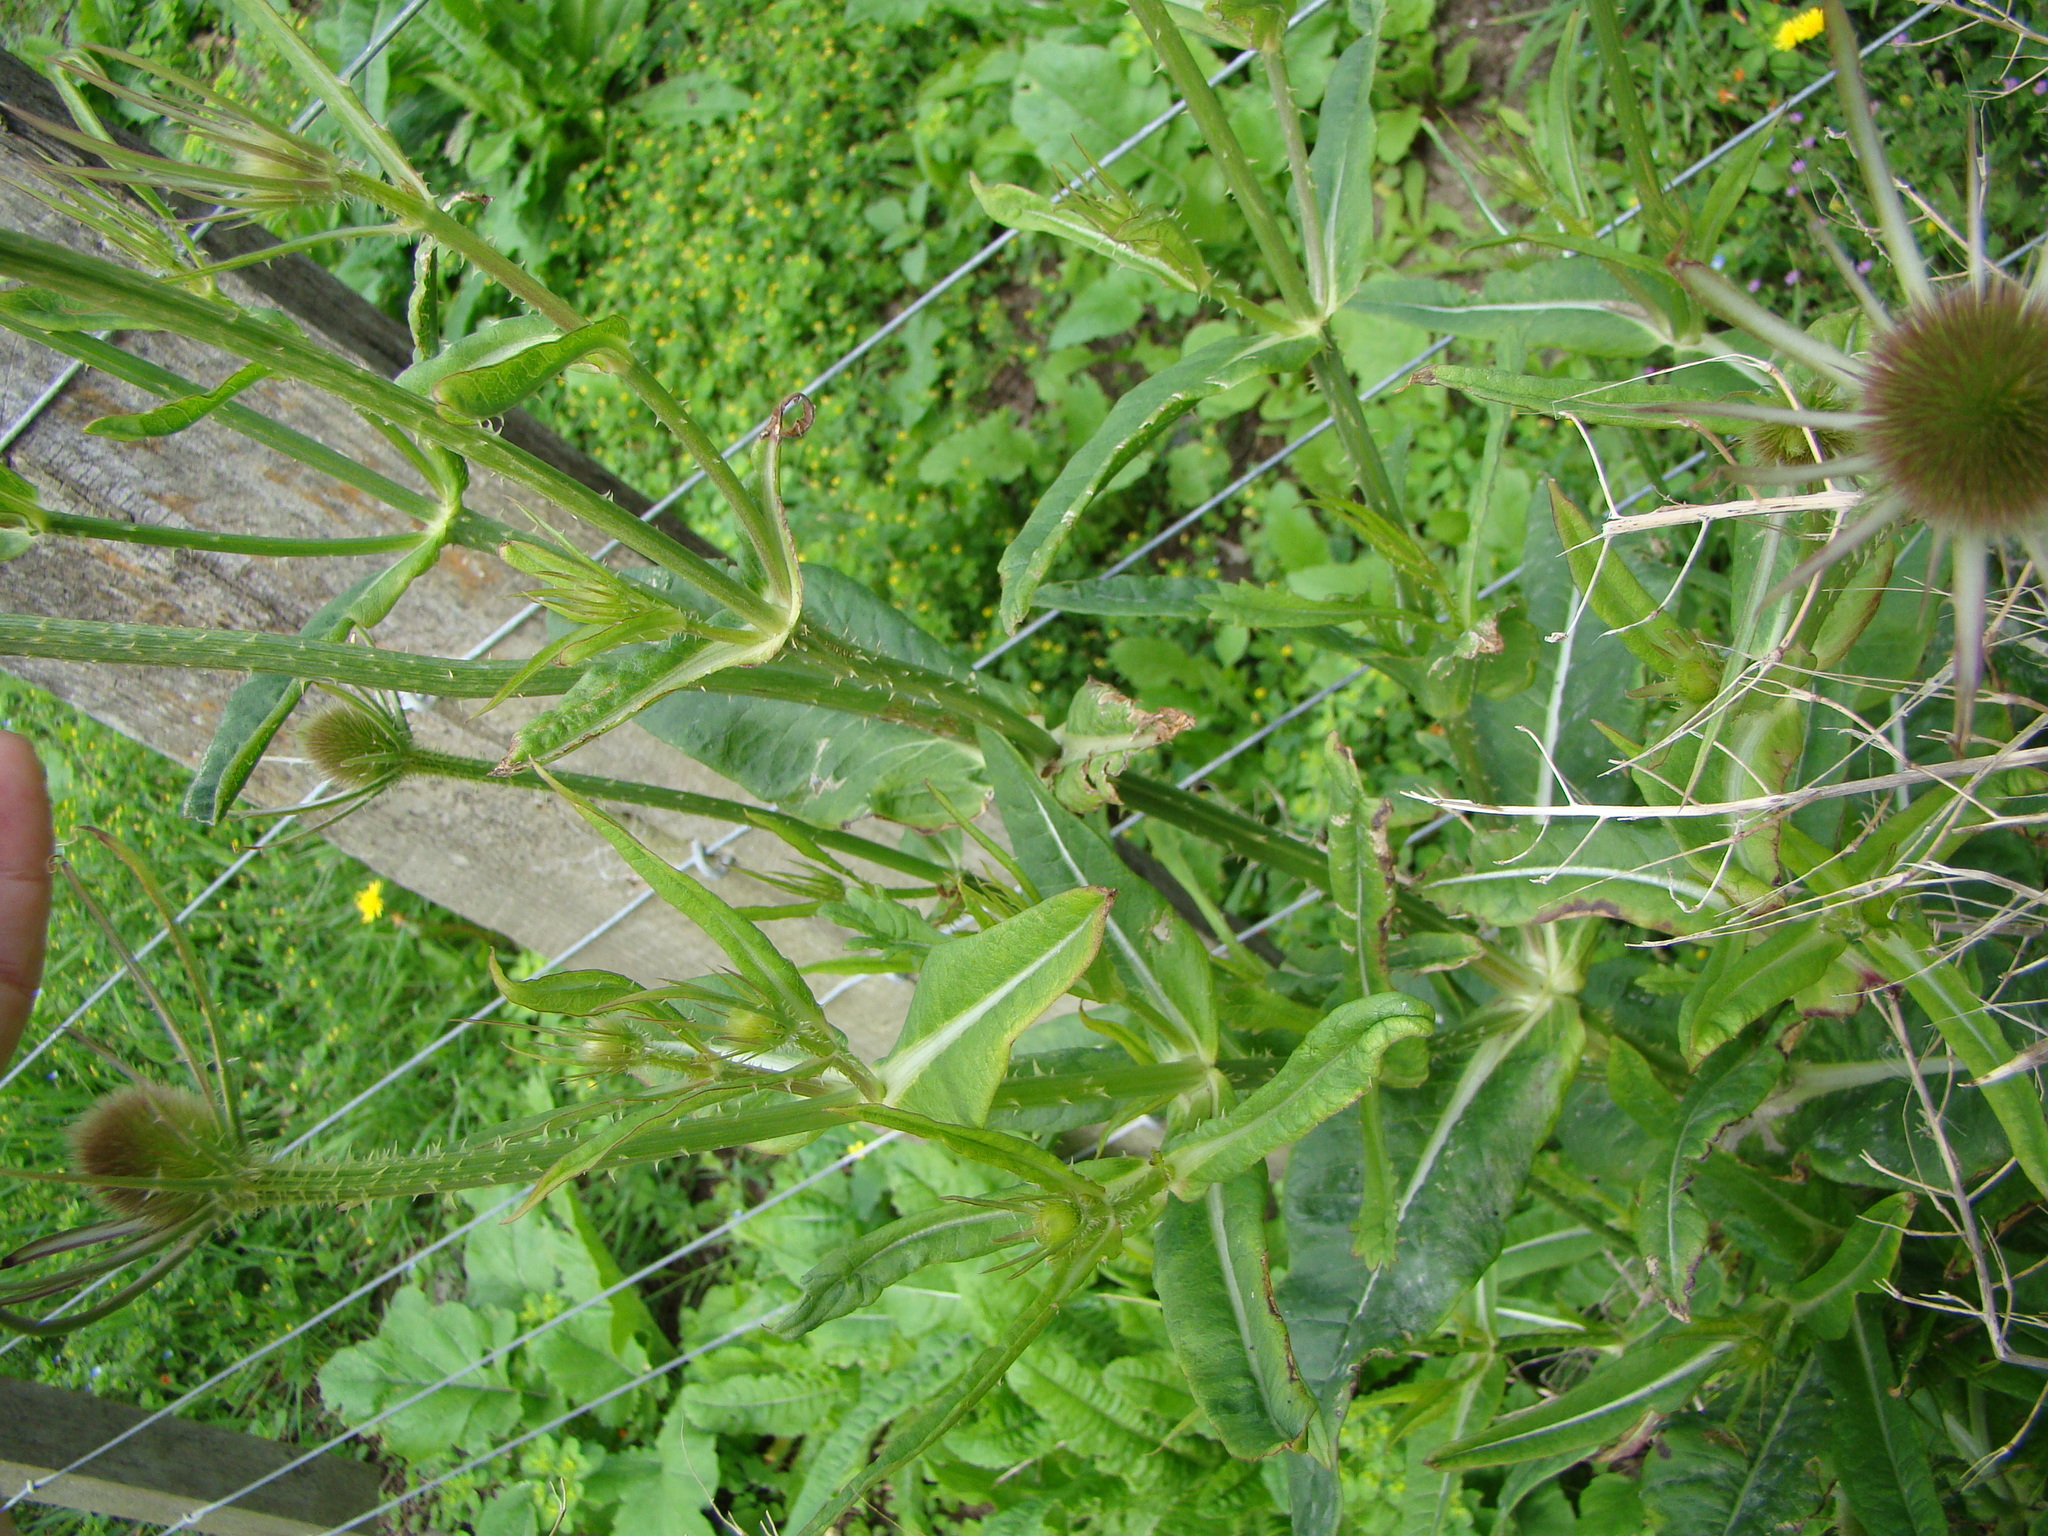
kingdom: Plantae
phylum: Tracheophyta
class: Magnoliopsida
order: Dipsacales
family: Caprifoliaceae
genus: Dipsacus
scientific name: Dipsacus fullonum
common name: Teasel
